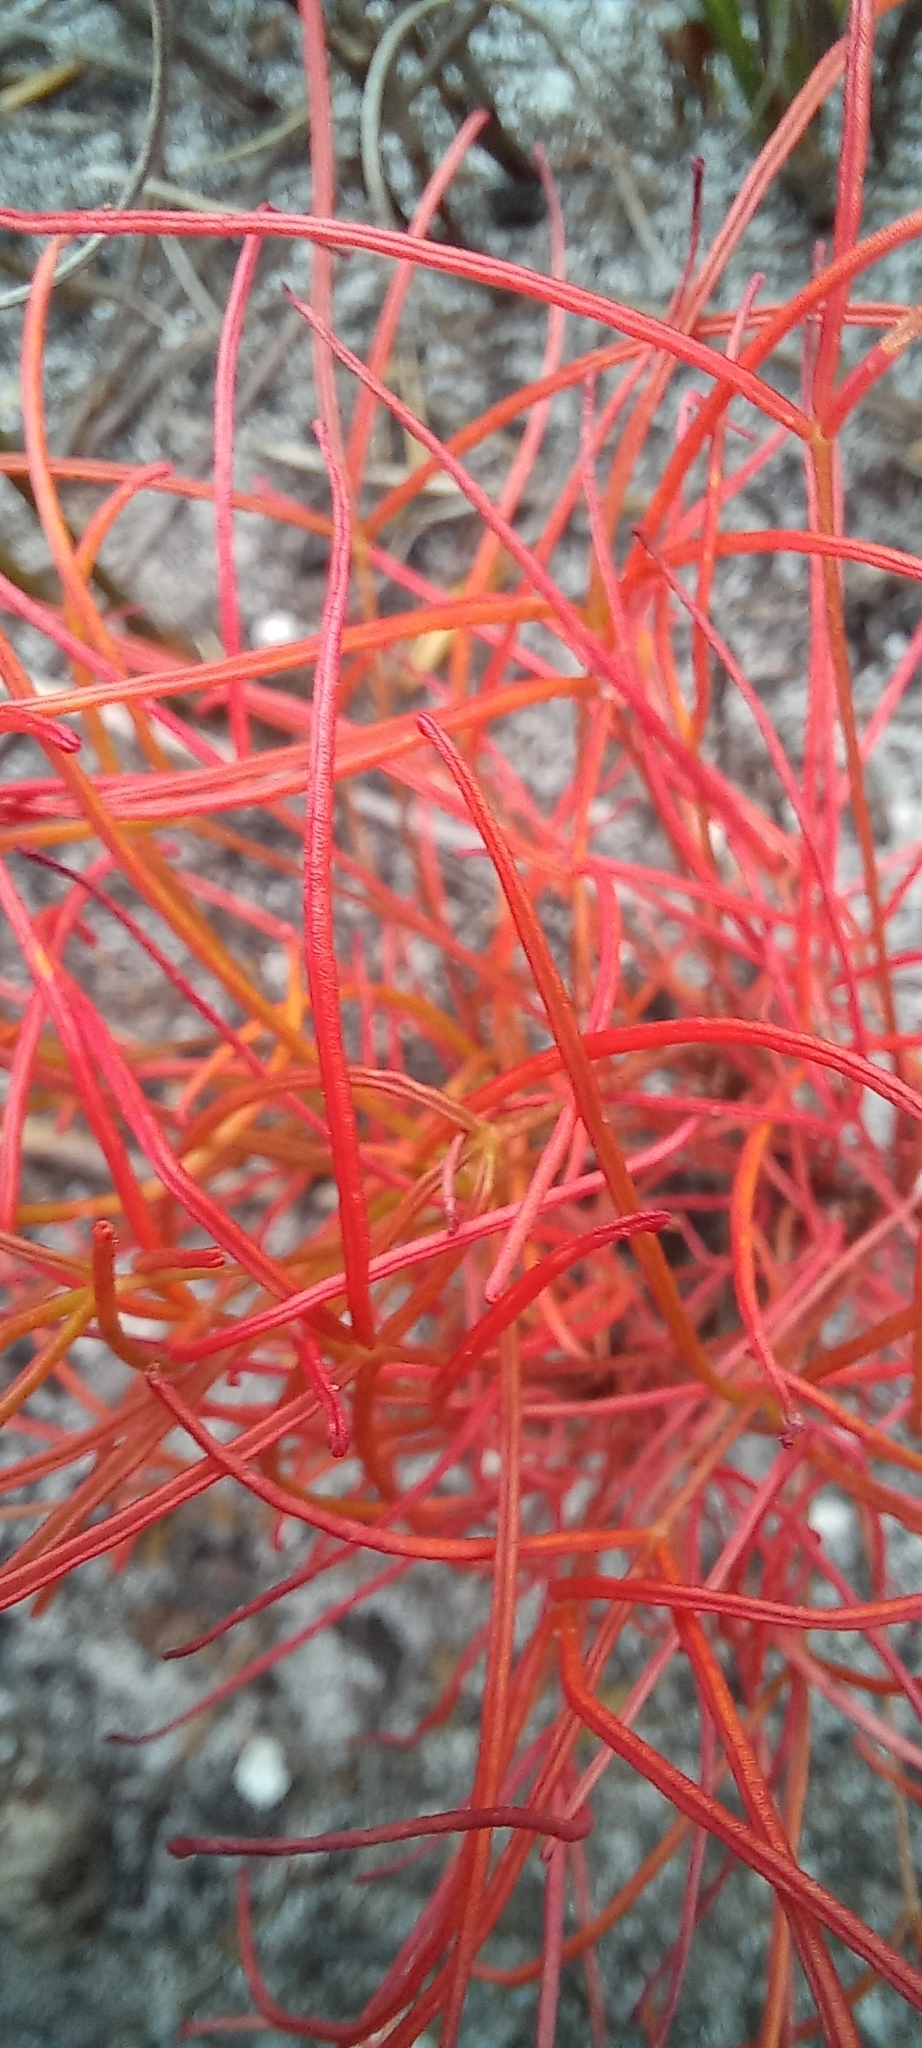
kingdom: Plantae
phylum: Tracheophyta
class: Magnoliopsida
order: Oxalidales
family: Oxalidaceae
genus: Oxalis
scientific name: Oxalis polyphylla
